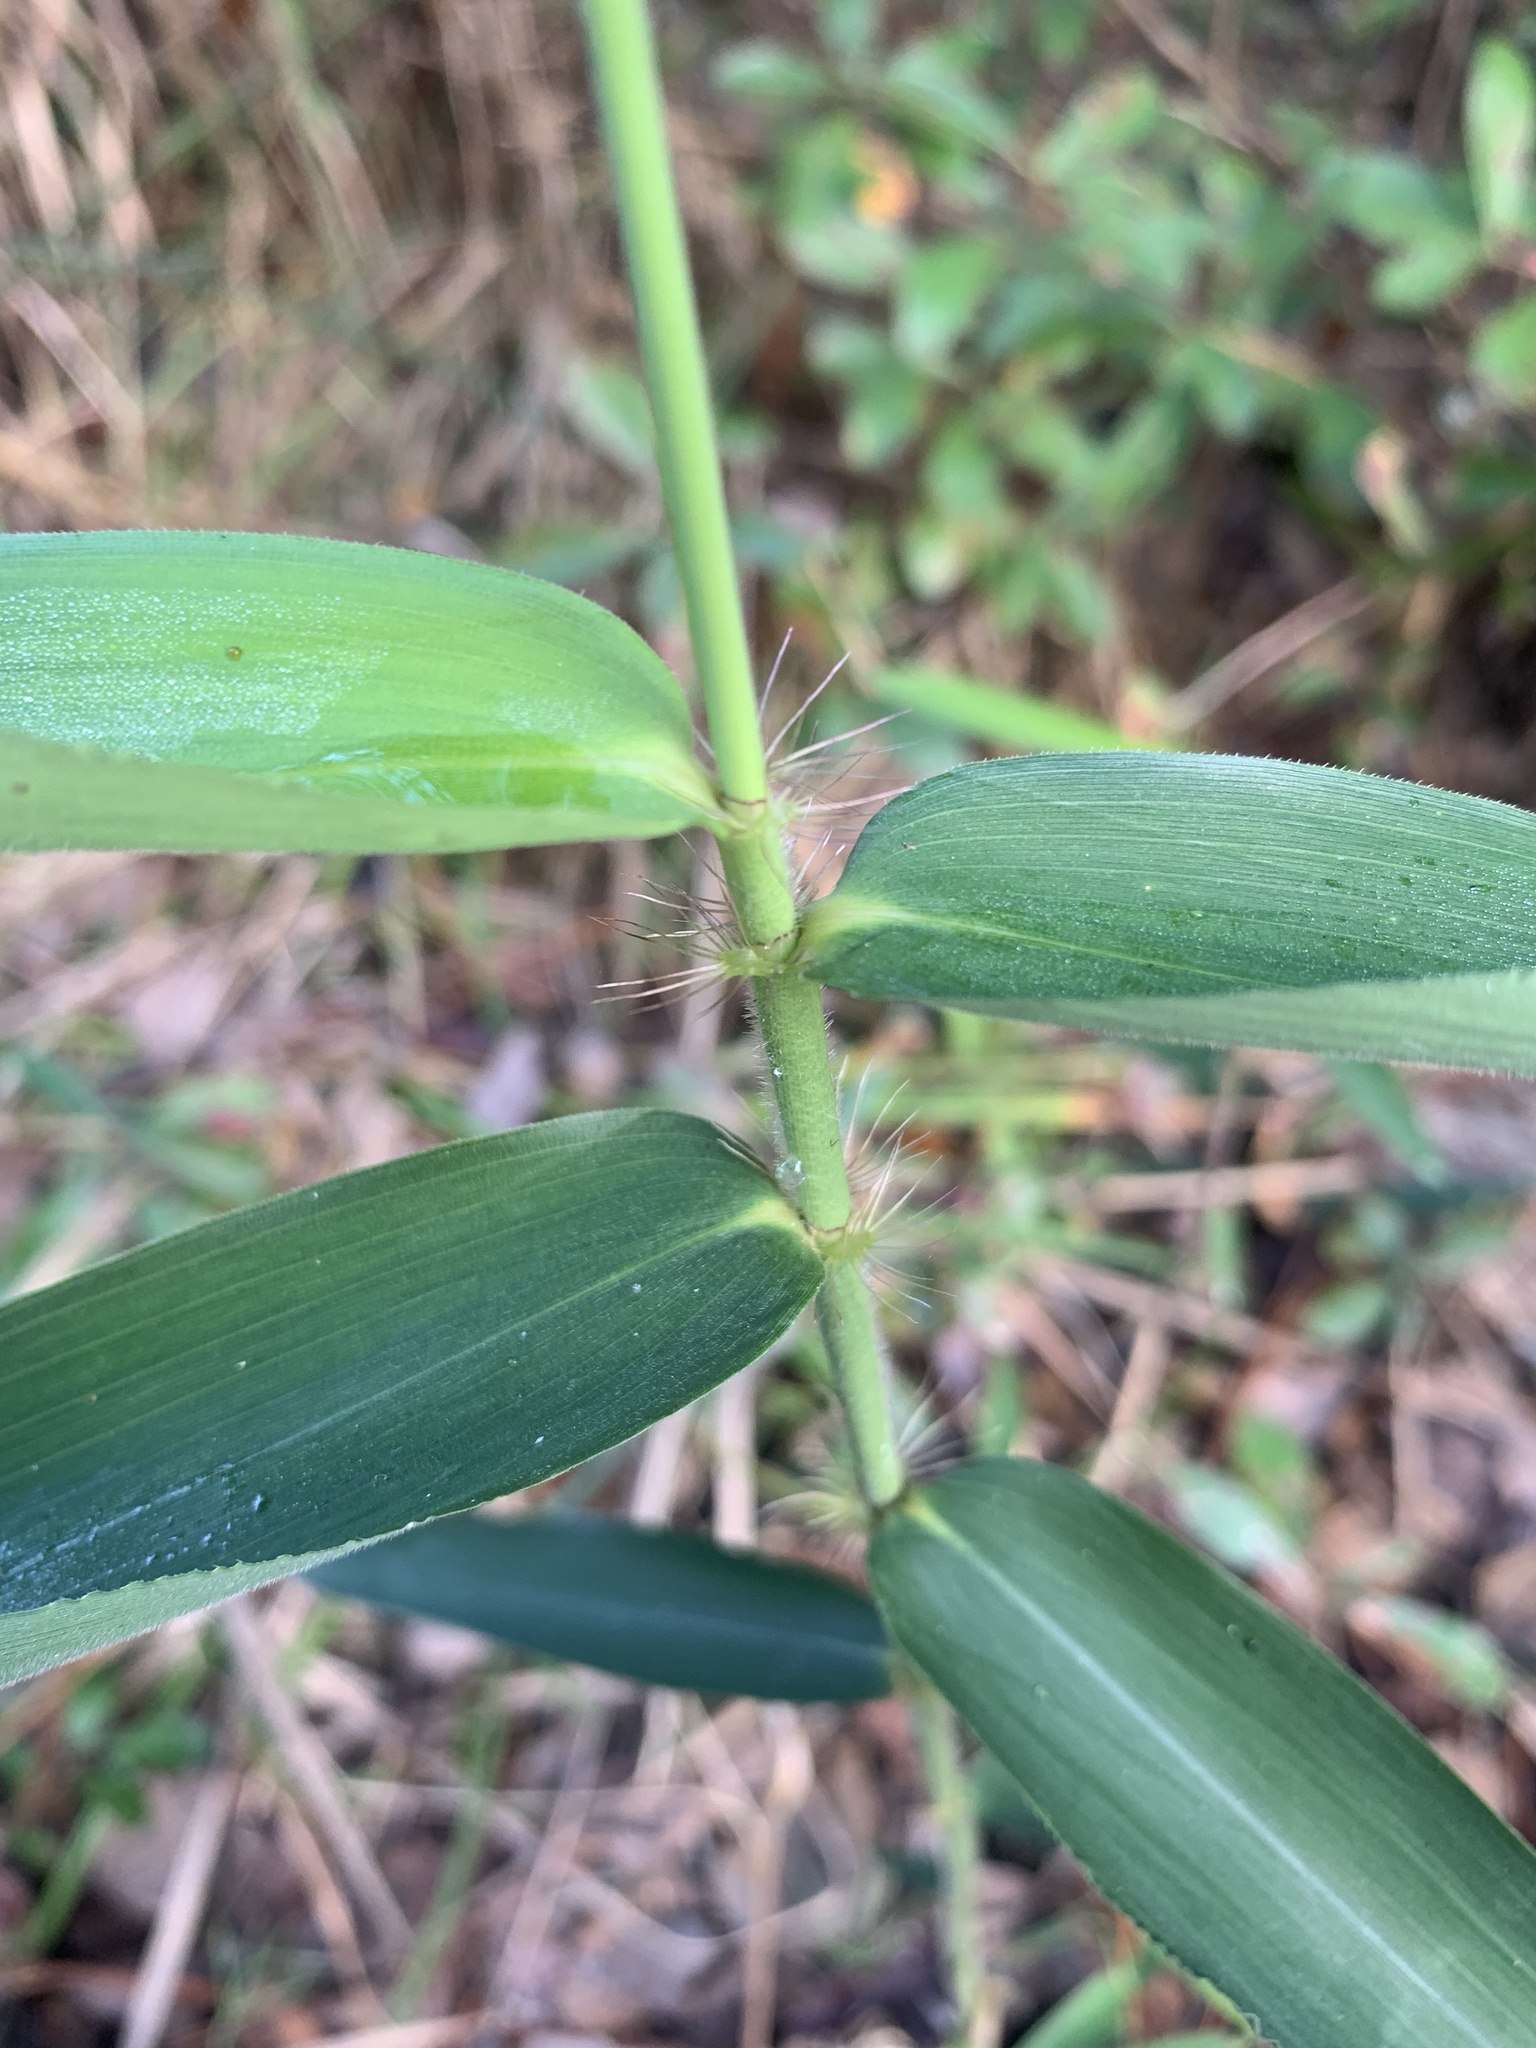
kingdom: Plantae
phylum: Tracheophyta
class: Liliopsida
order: Poales
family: Poaceae
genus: Arundinaria
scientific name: Arundinaria tecta
